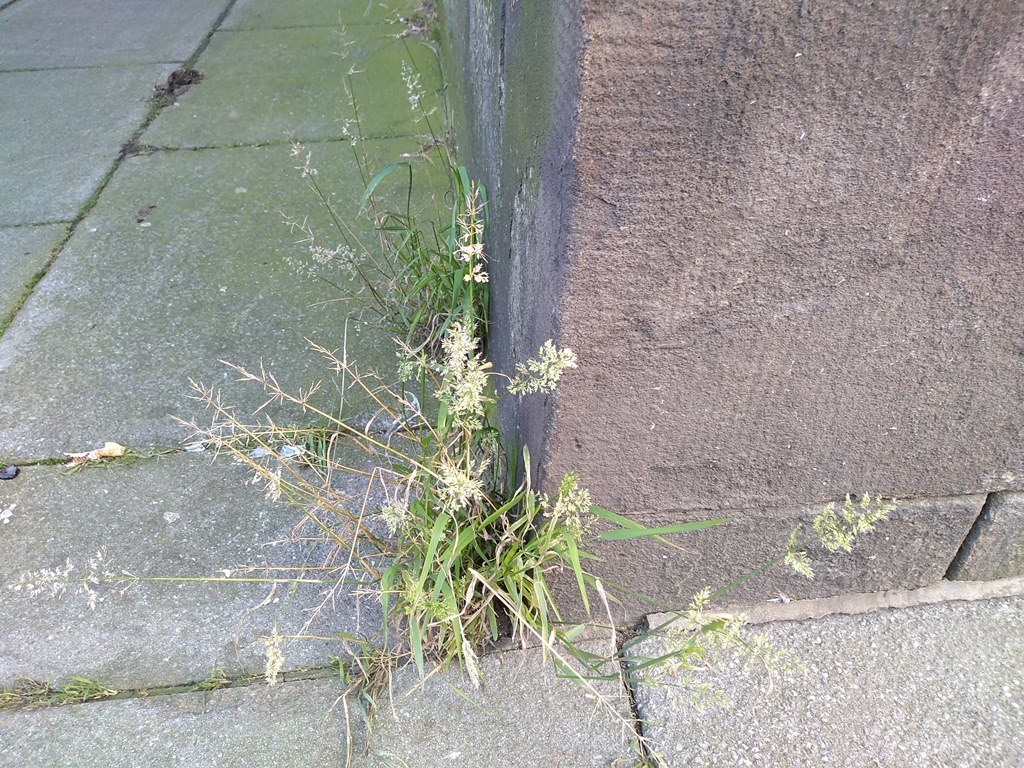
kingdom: Plantae
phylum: Tracheophyta
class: Liliopsida
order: Poales
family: Poaceae
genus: Polypogon
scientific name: Polypogon viridis
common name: Water bent
